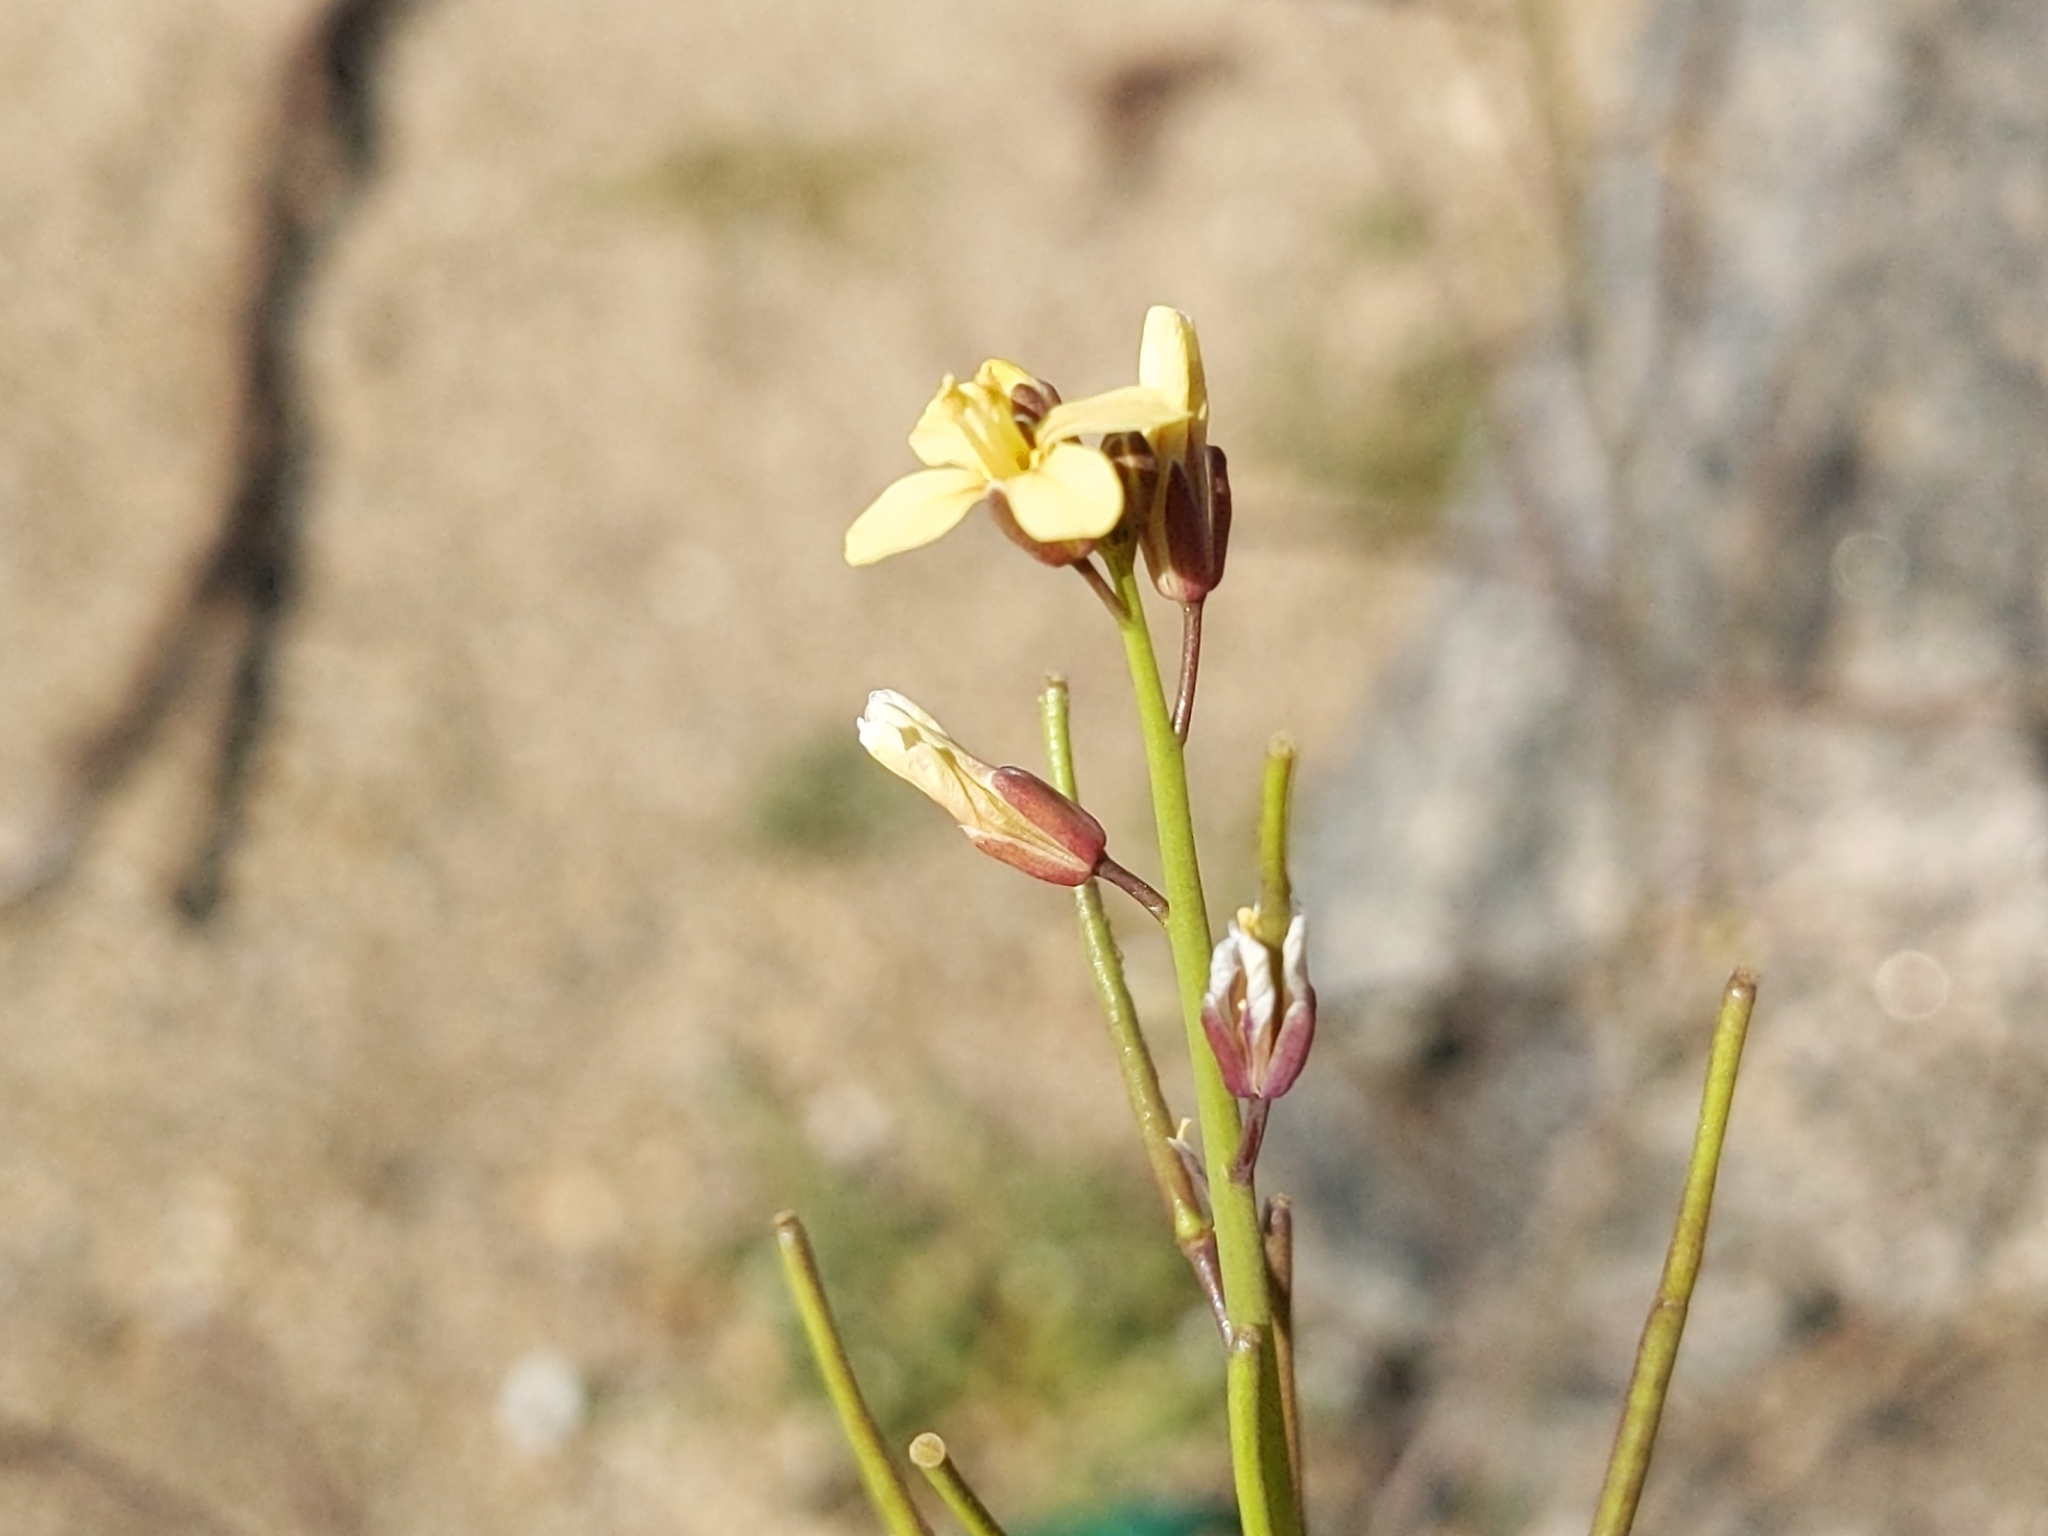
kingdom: Plantae
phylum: Tracheophyta
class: Magnoliopsida
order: Brassicales
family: Brassicaceae
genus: Brassica
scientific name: Brassica tournefortii
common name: Pale cabbage
